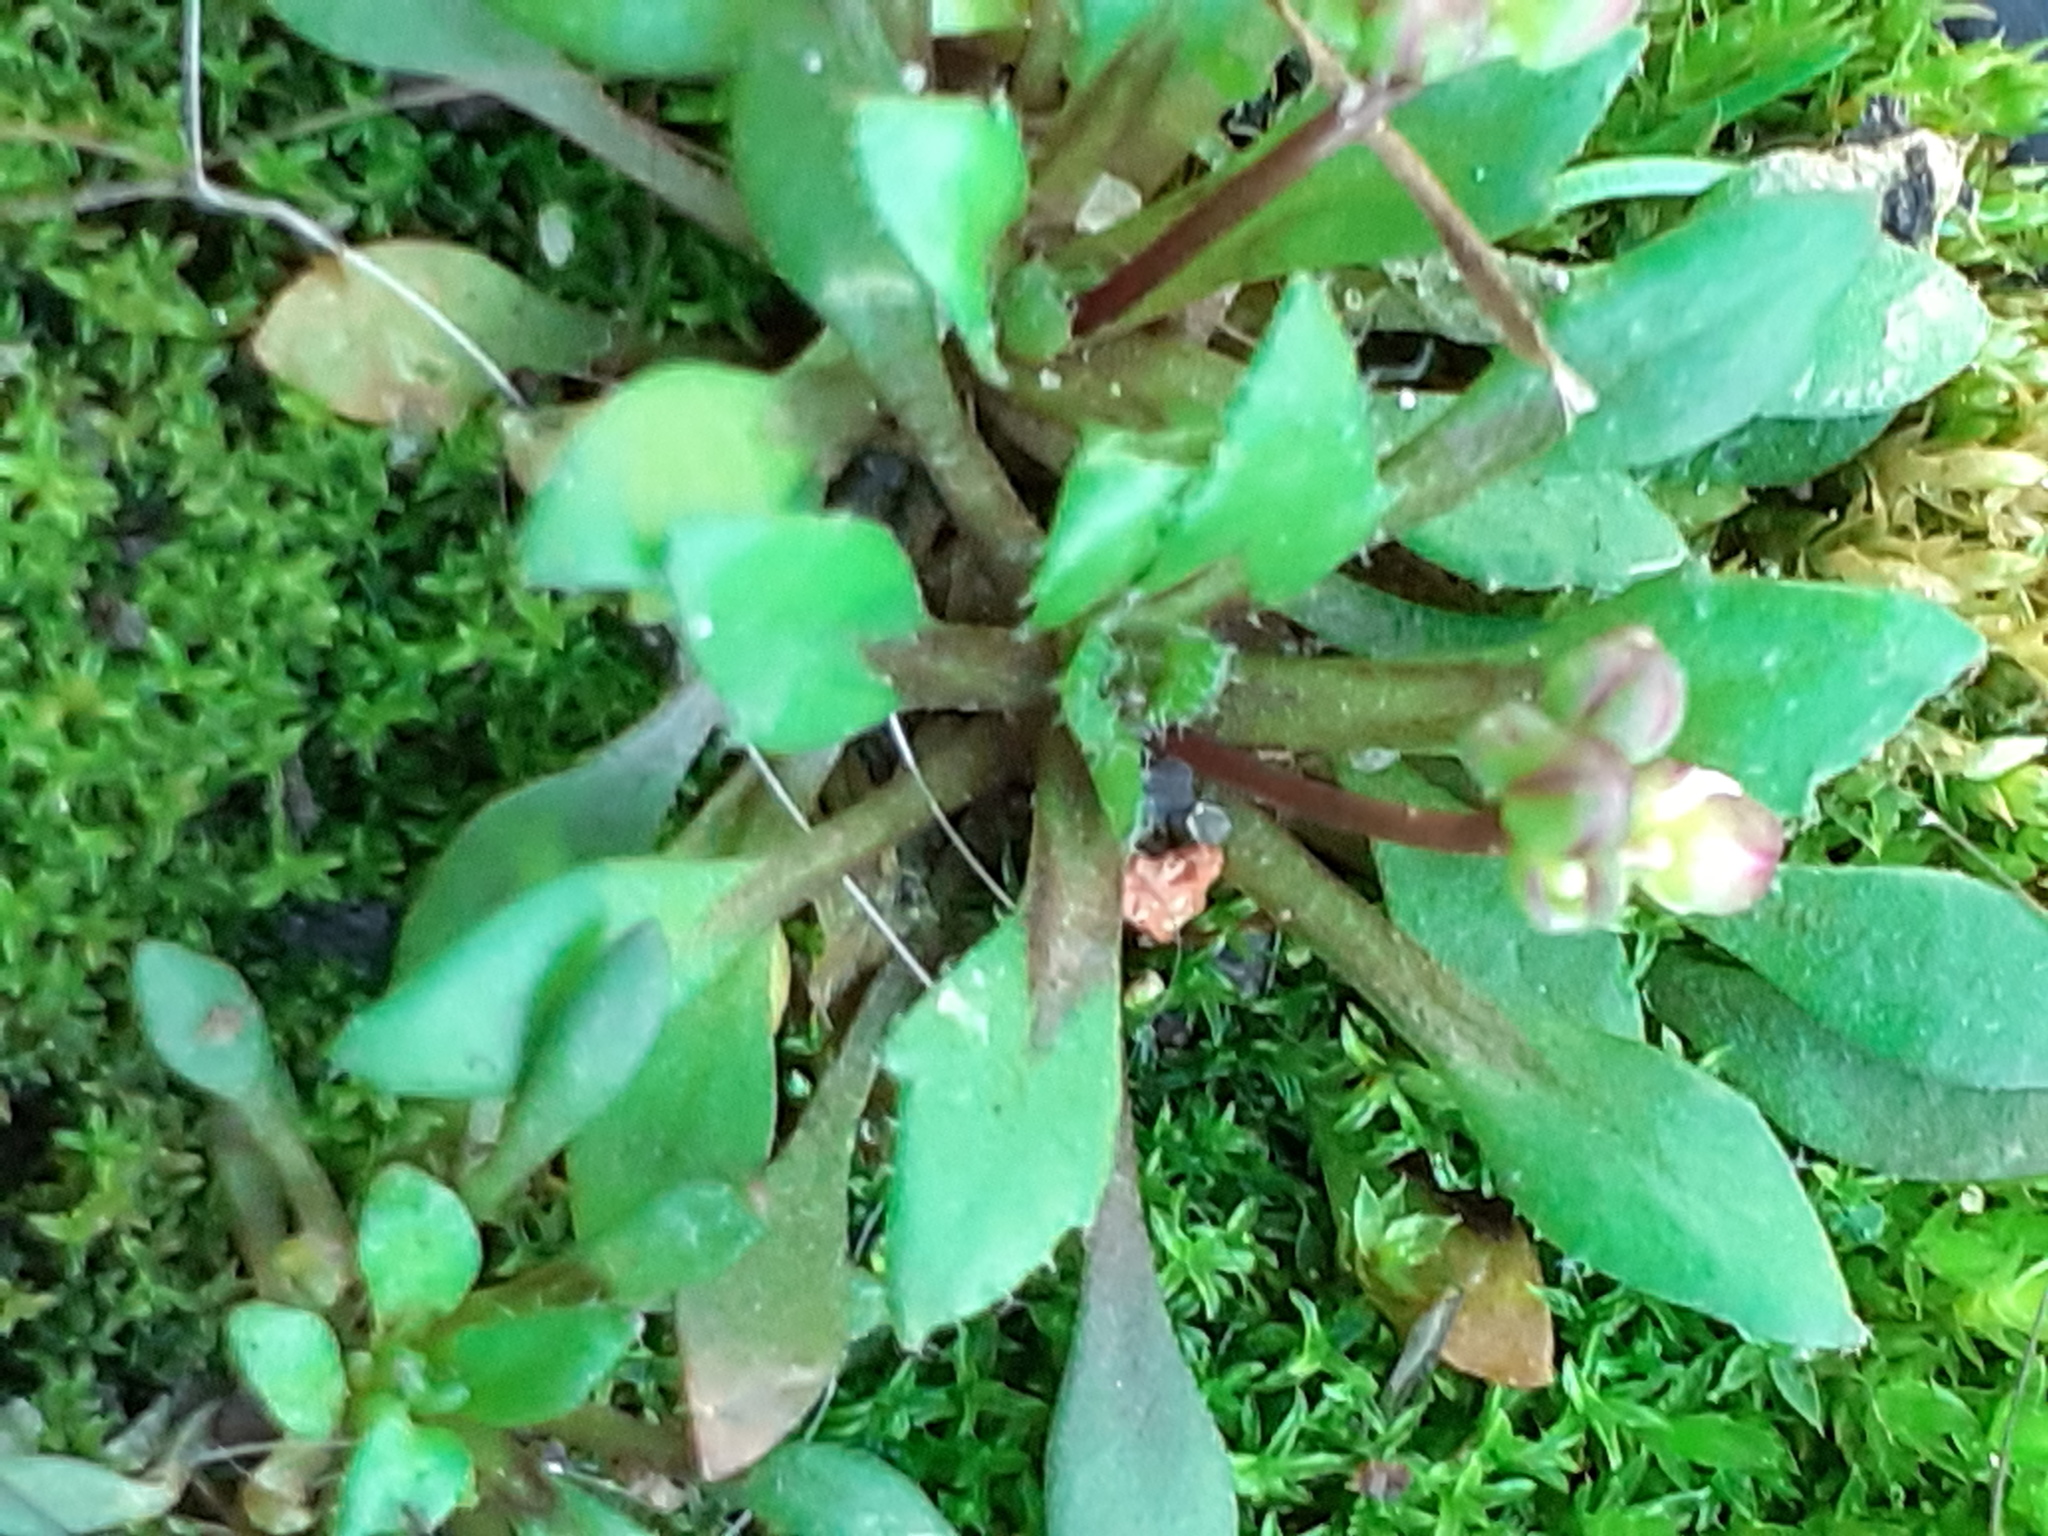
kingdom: Plantae
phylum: Tracheophyta
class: Magnoliopsida
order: Brassicales
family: Brassicaceae
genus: Draba
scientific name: Draba verna
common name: Spring draba
